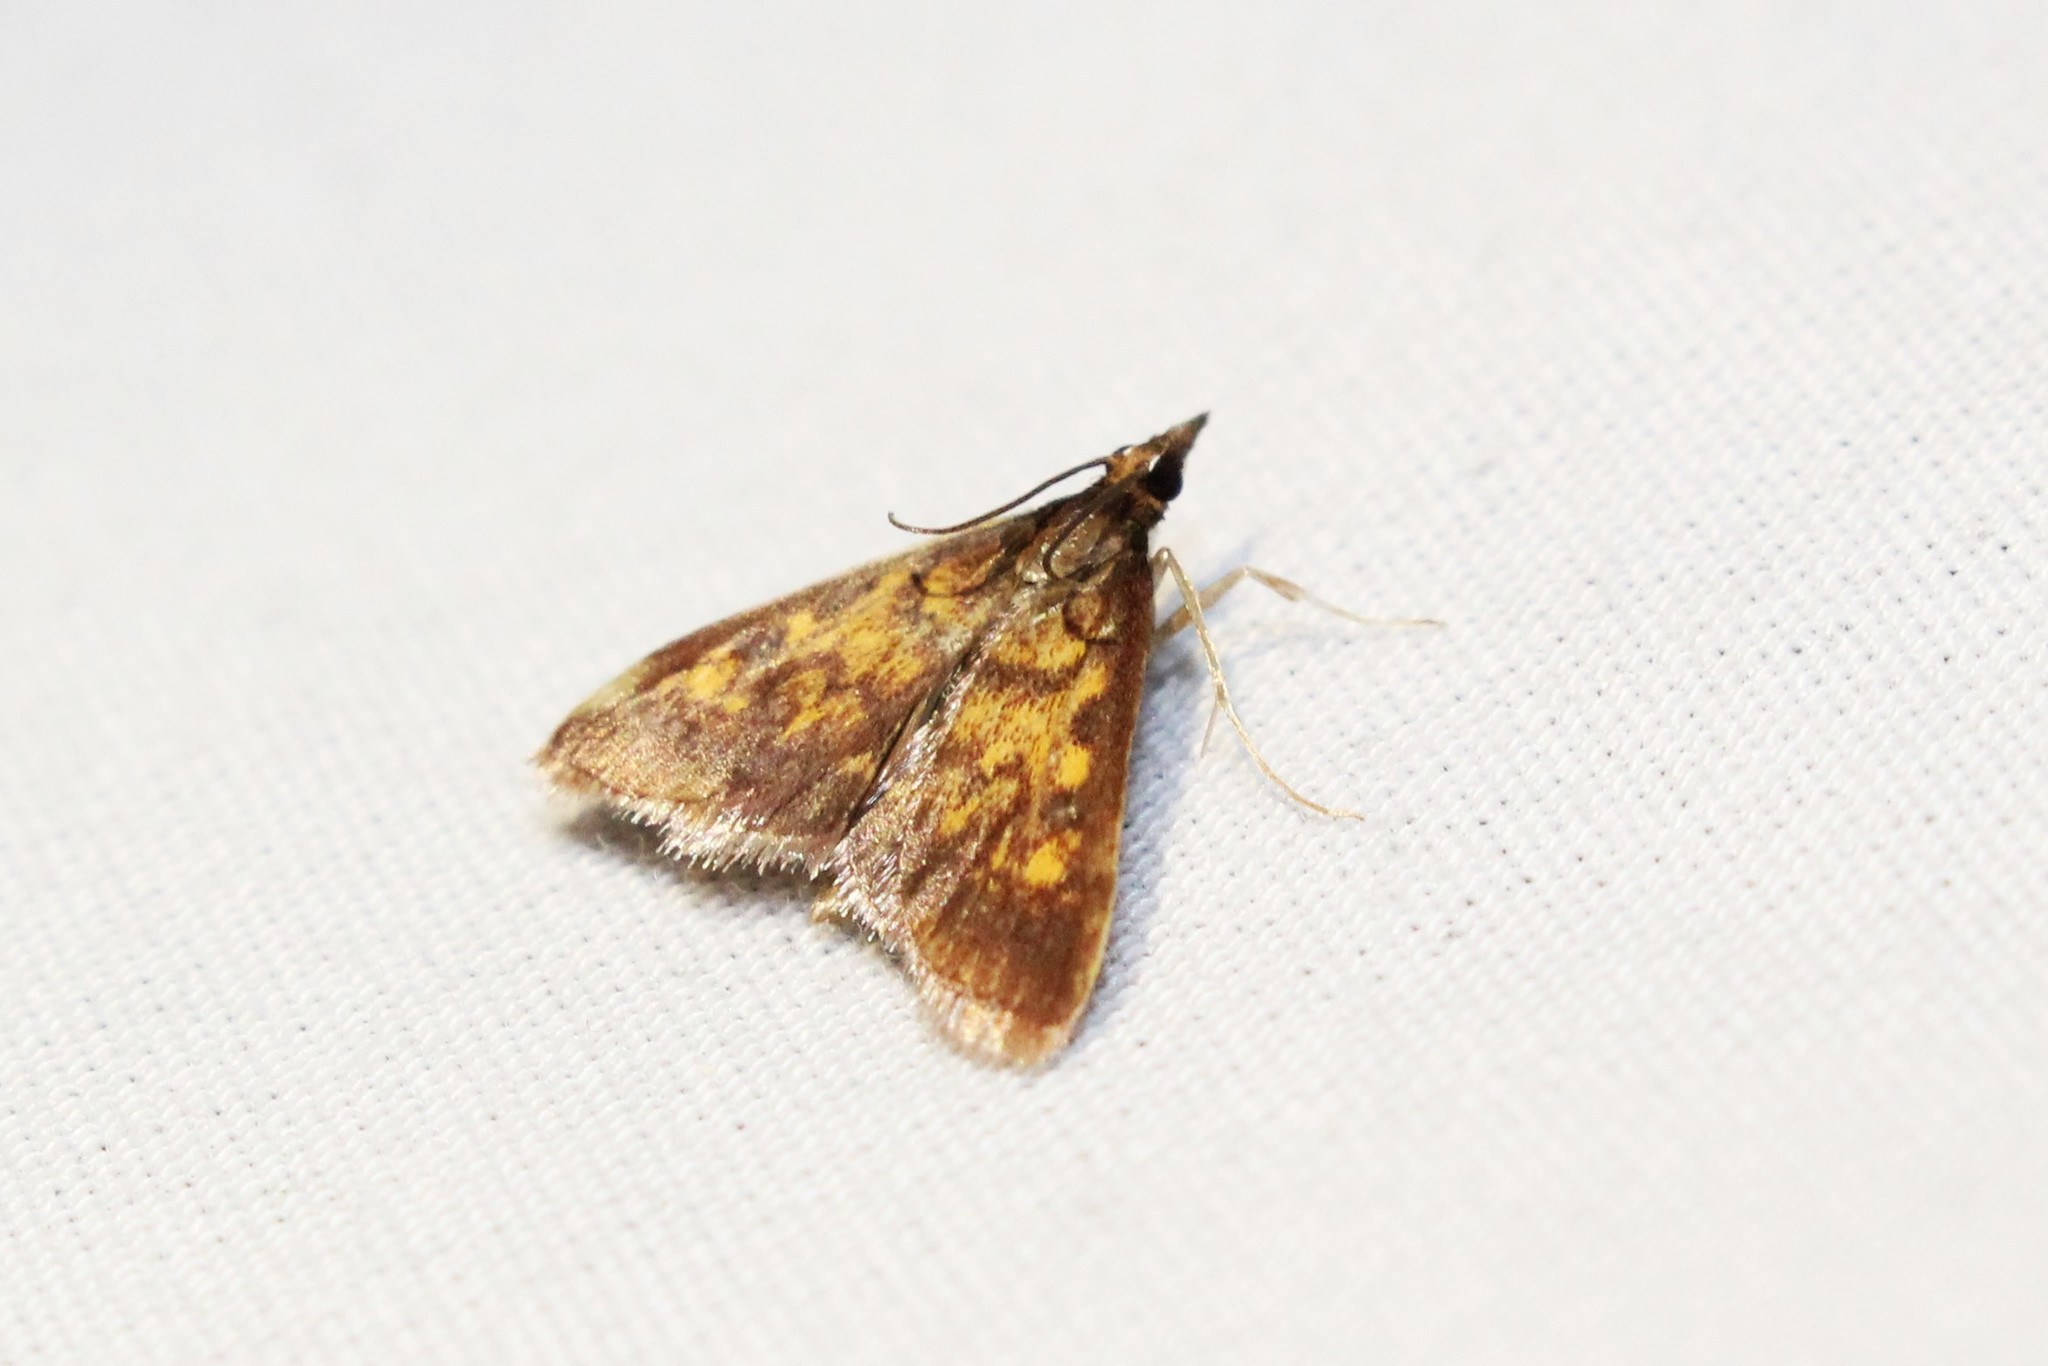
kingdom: Animalia
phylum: Arthropoda
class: Insecta
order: Lepidoptera
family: Crambidae
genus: Pyrausta
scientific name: Pyrausta acrionalis
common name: Mint-loving pyrausta moth
